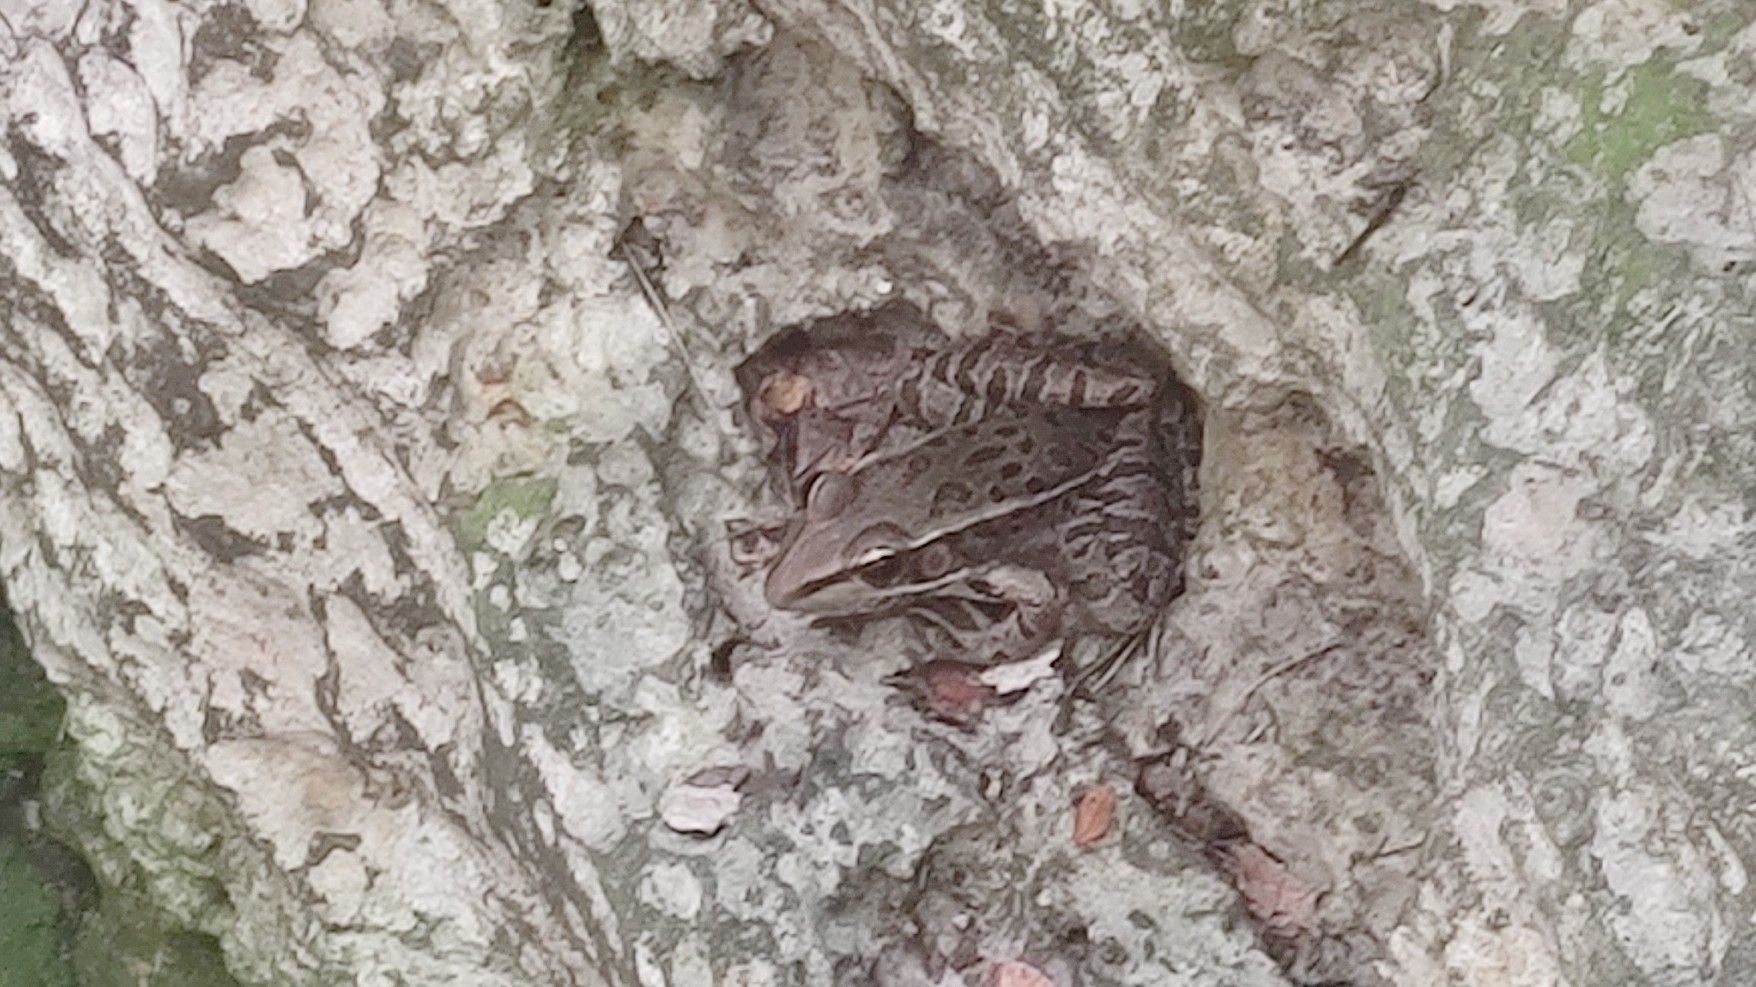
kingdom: Animalia
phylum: Chordata
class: Amphibia
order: Anura
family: Ranidae
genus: Lithobates
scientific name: Lithobates brownorum
